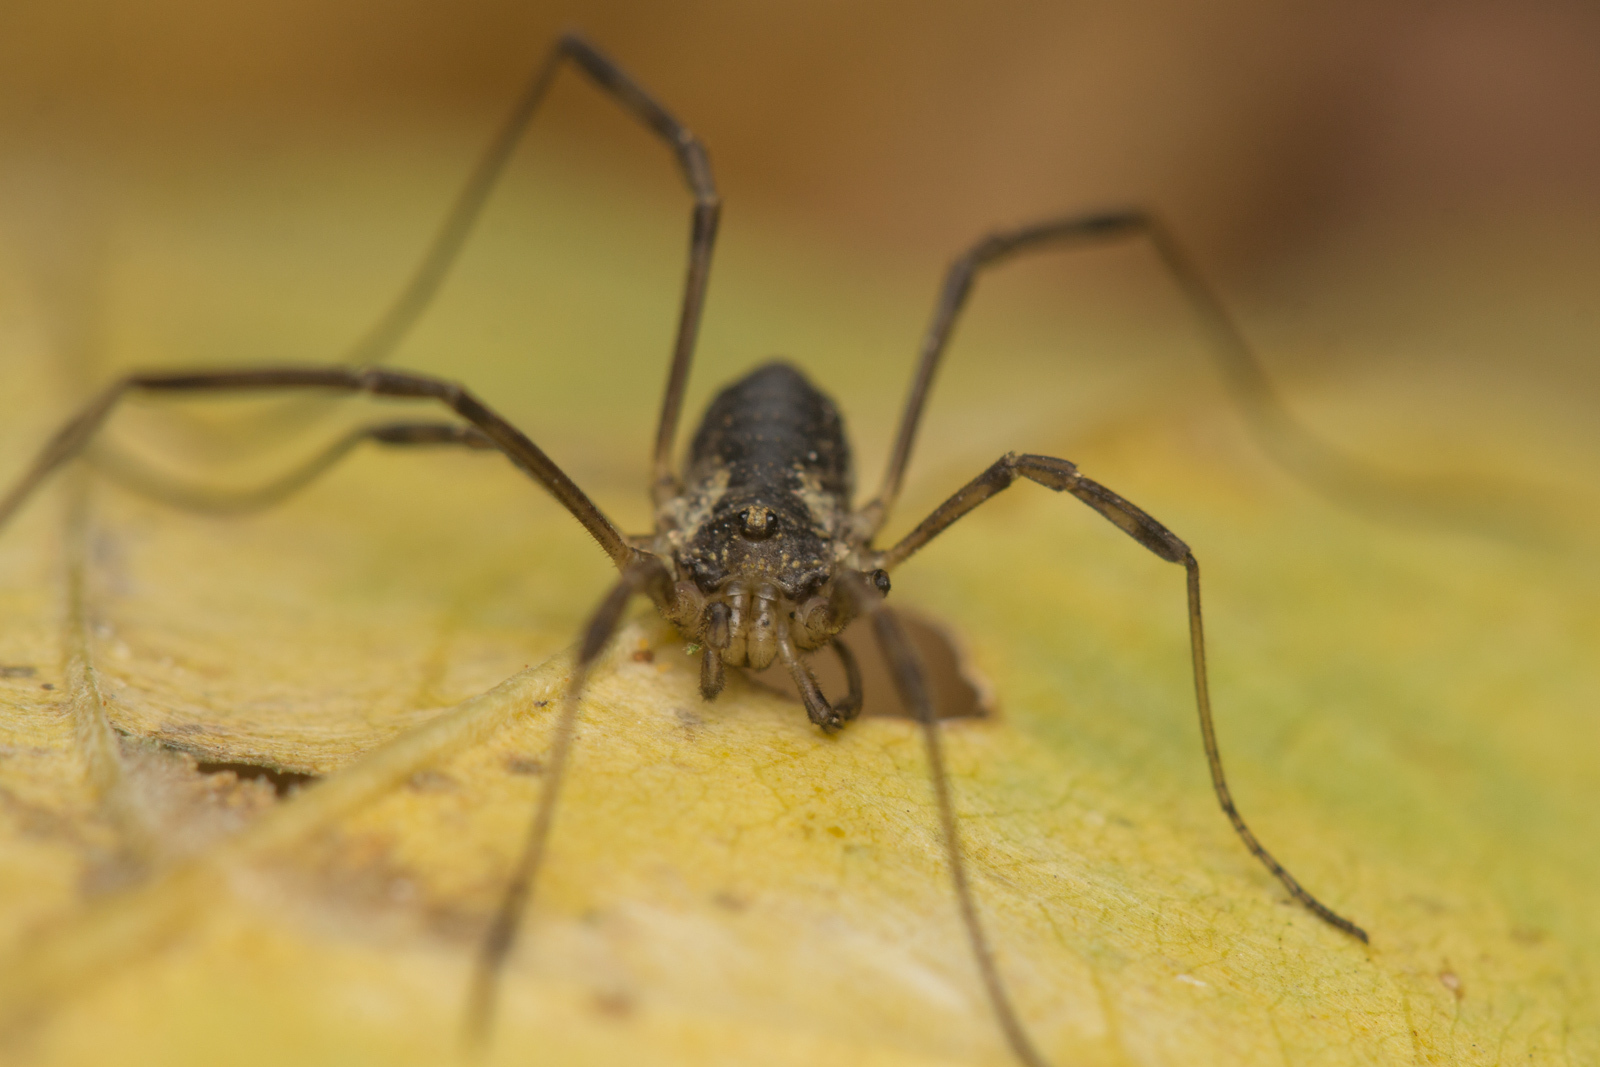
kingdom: Animalia
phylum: Arthropoda
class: Arachnida
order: Opiliones
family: Phalangiidae
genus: Oligolophus
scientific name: Oligolophus tridens
